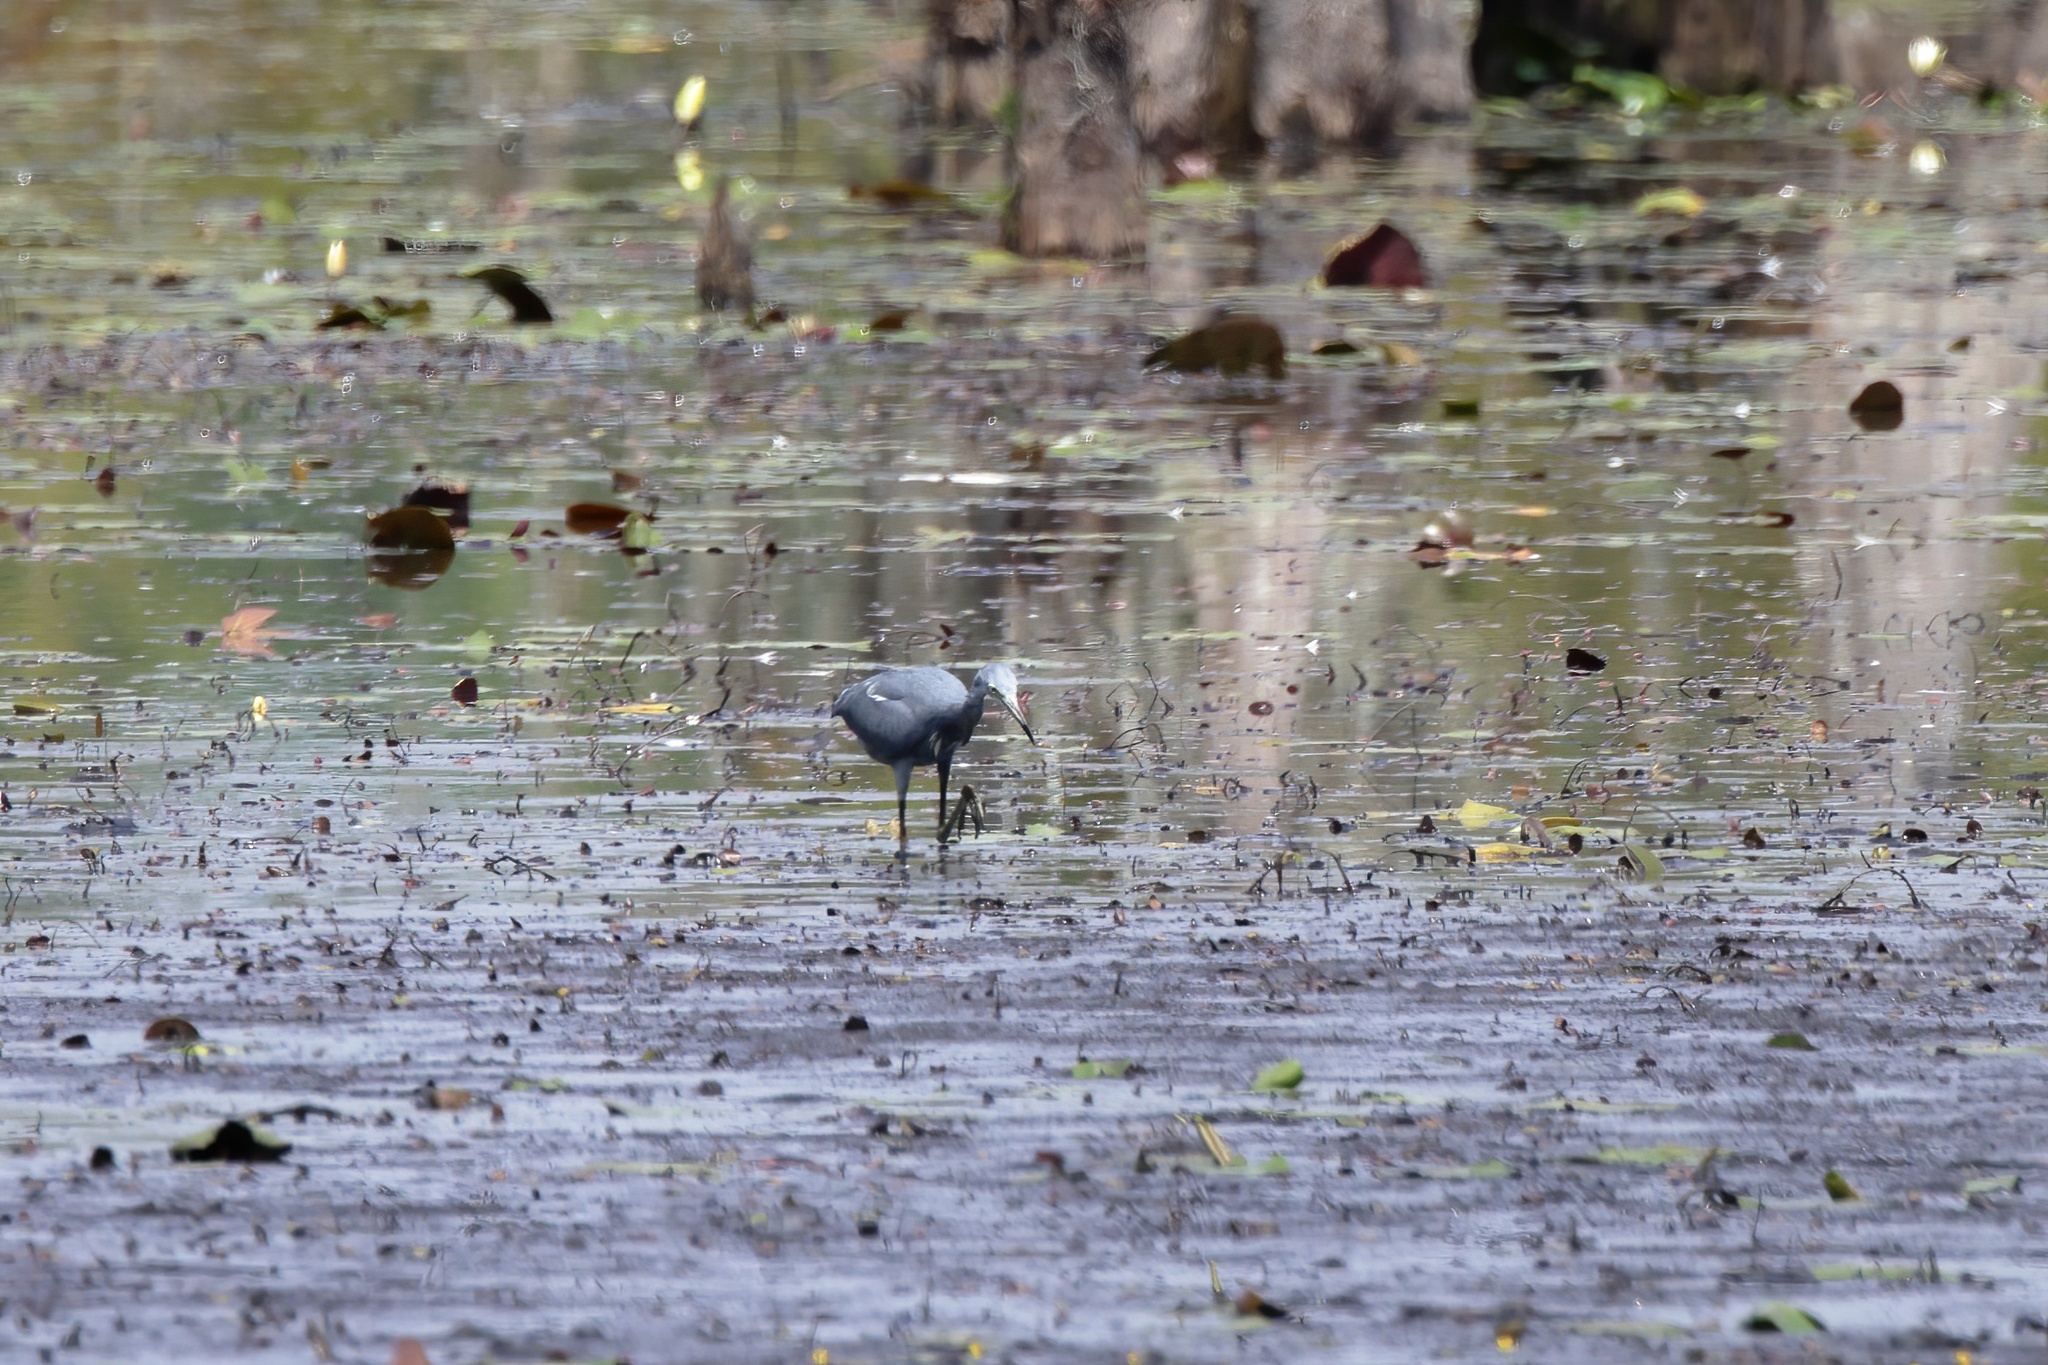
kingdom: Animalia
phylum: Chordata
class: Aves
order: Pelecaniformes
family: Ardeidae
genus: Egretta
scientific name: Egretta caerulea
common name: Little blue heron
